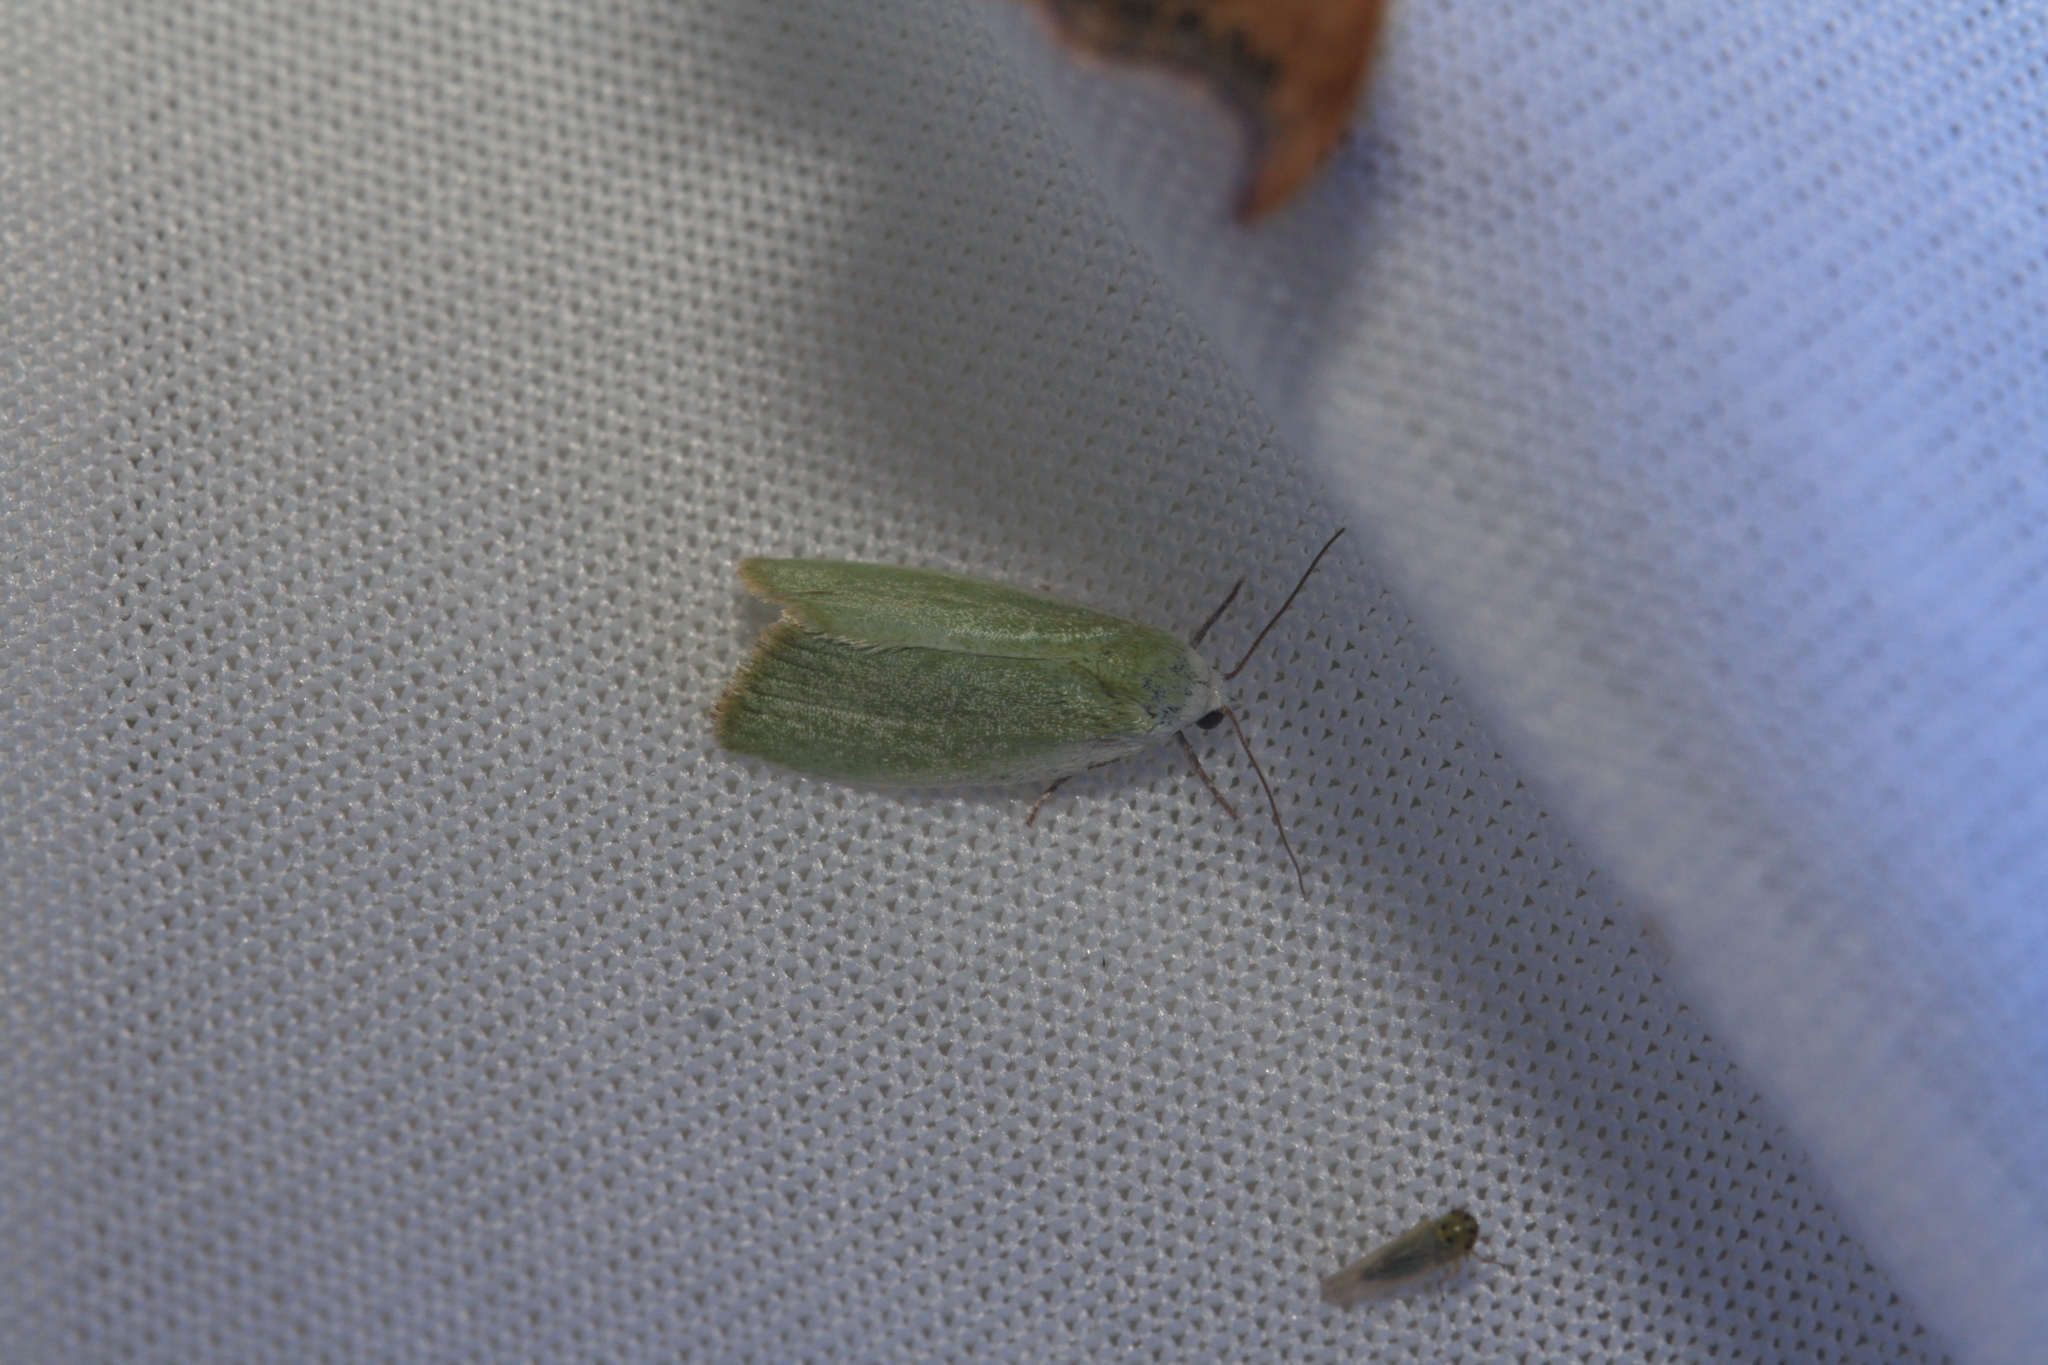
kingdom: Animalia
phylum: Arthropoda
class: Insecta
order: Lepidoptera
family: Nolidae
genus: Earias
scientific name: Earias clorana
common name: Cream-bordered green pea
